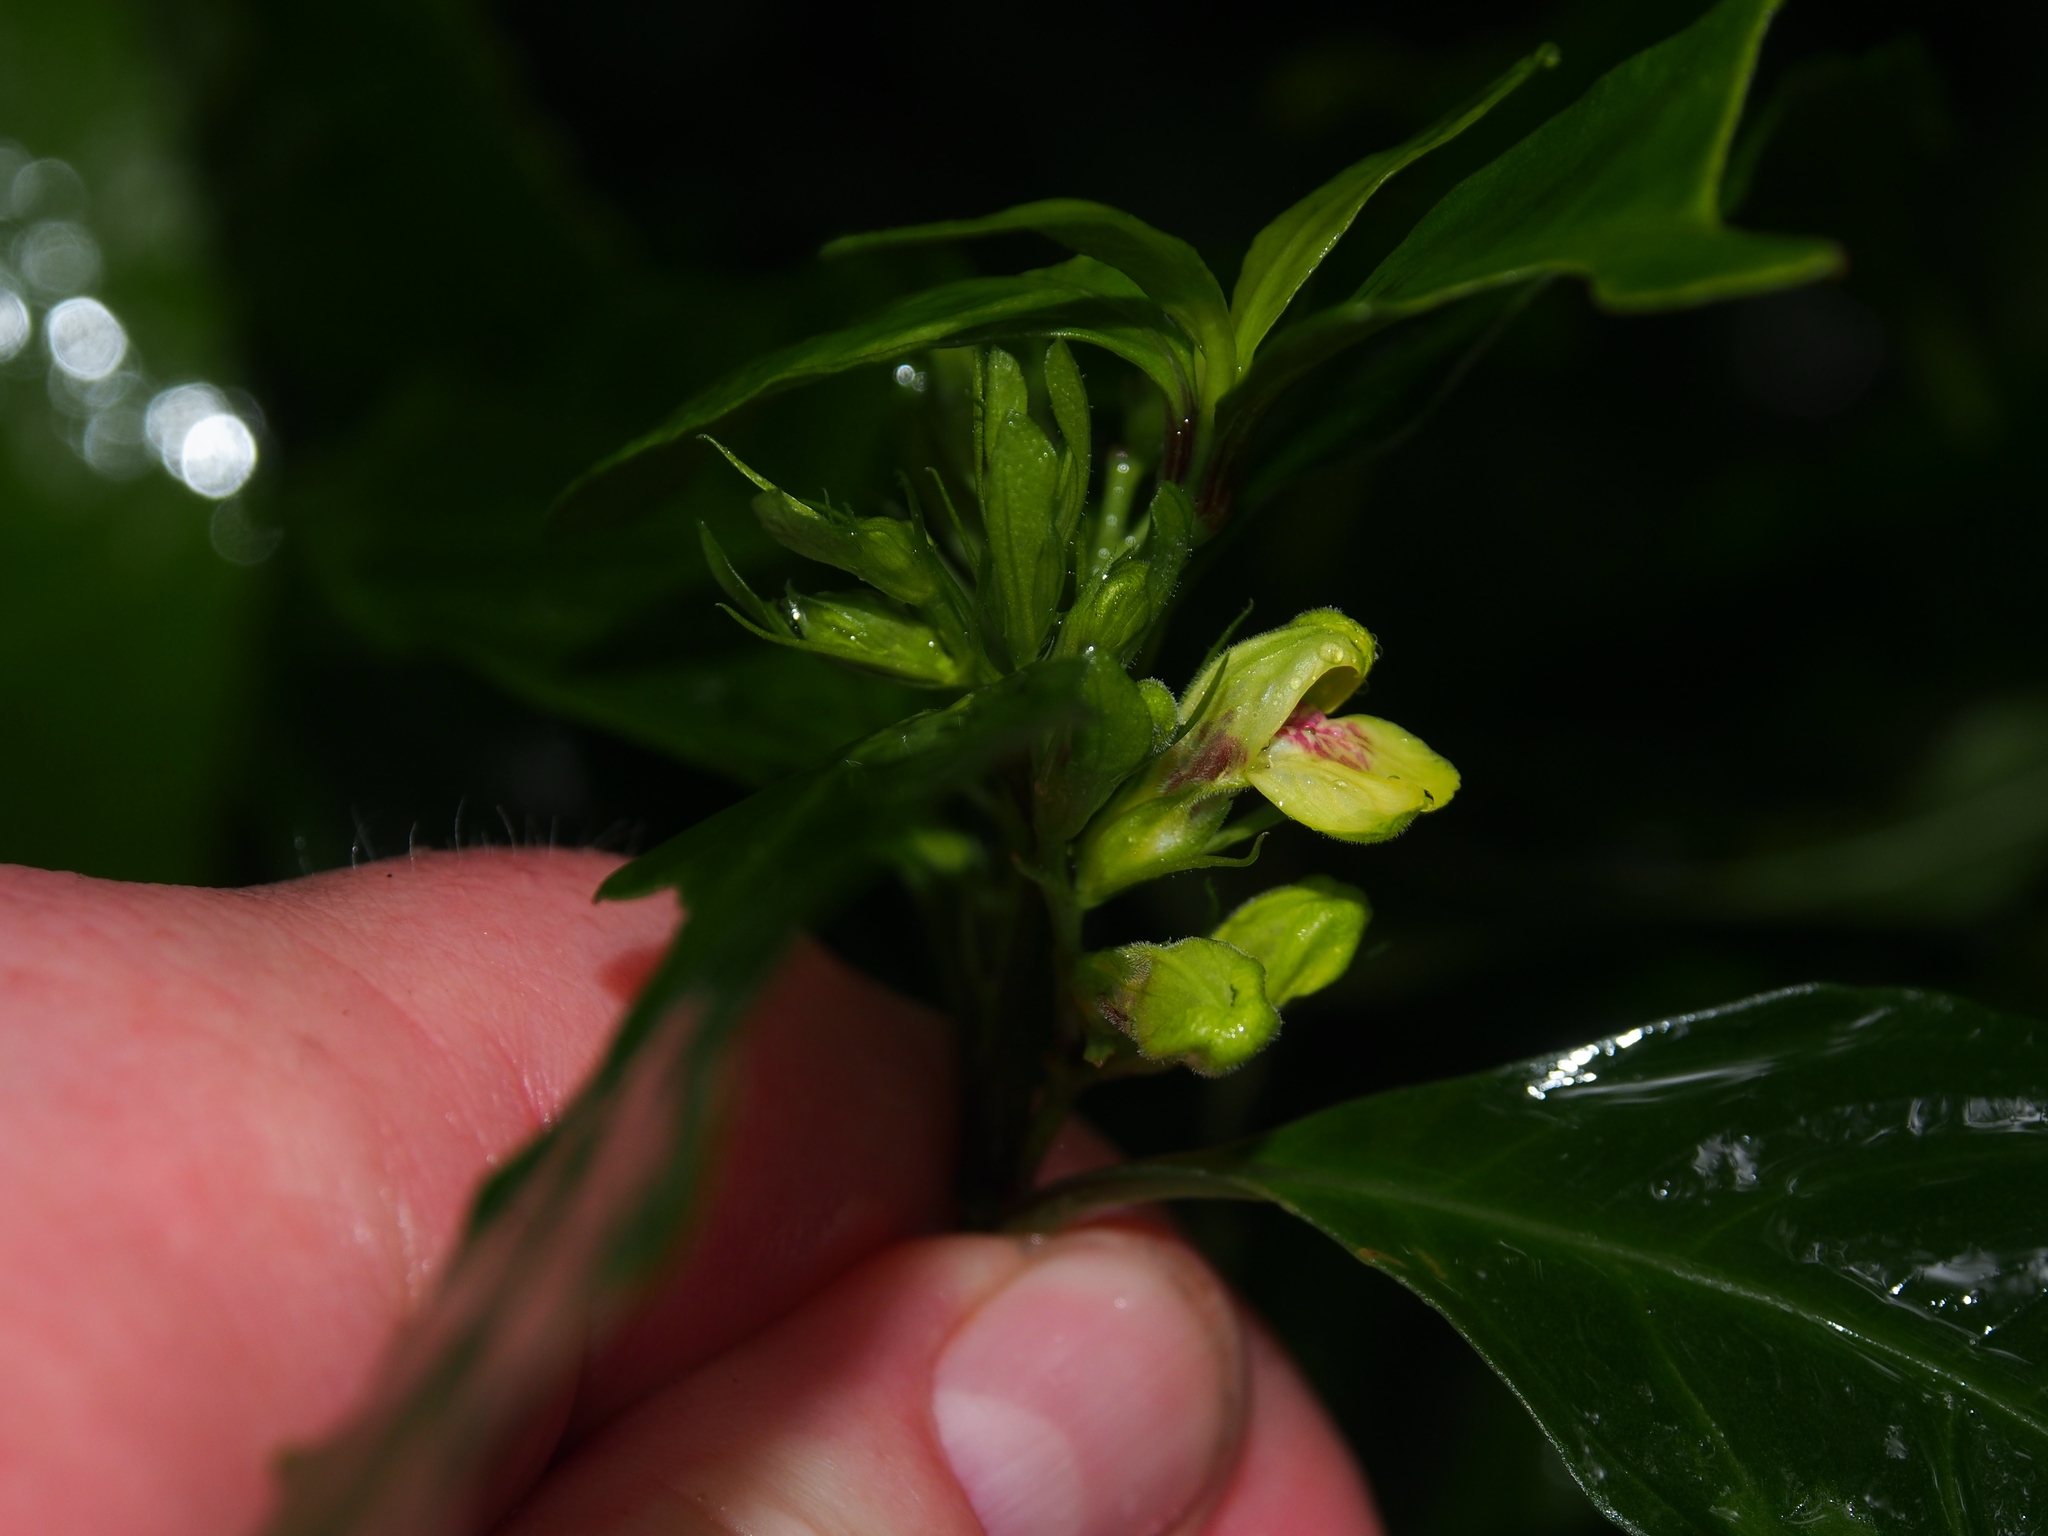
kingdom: Plantae
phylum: Tracheophyta
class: Magnoliopsida
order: Lamiales
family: Acanthaceae
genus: Justicia
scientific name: Justicia costaricana
